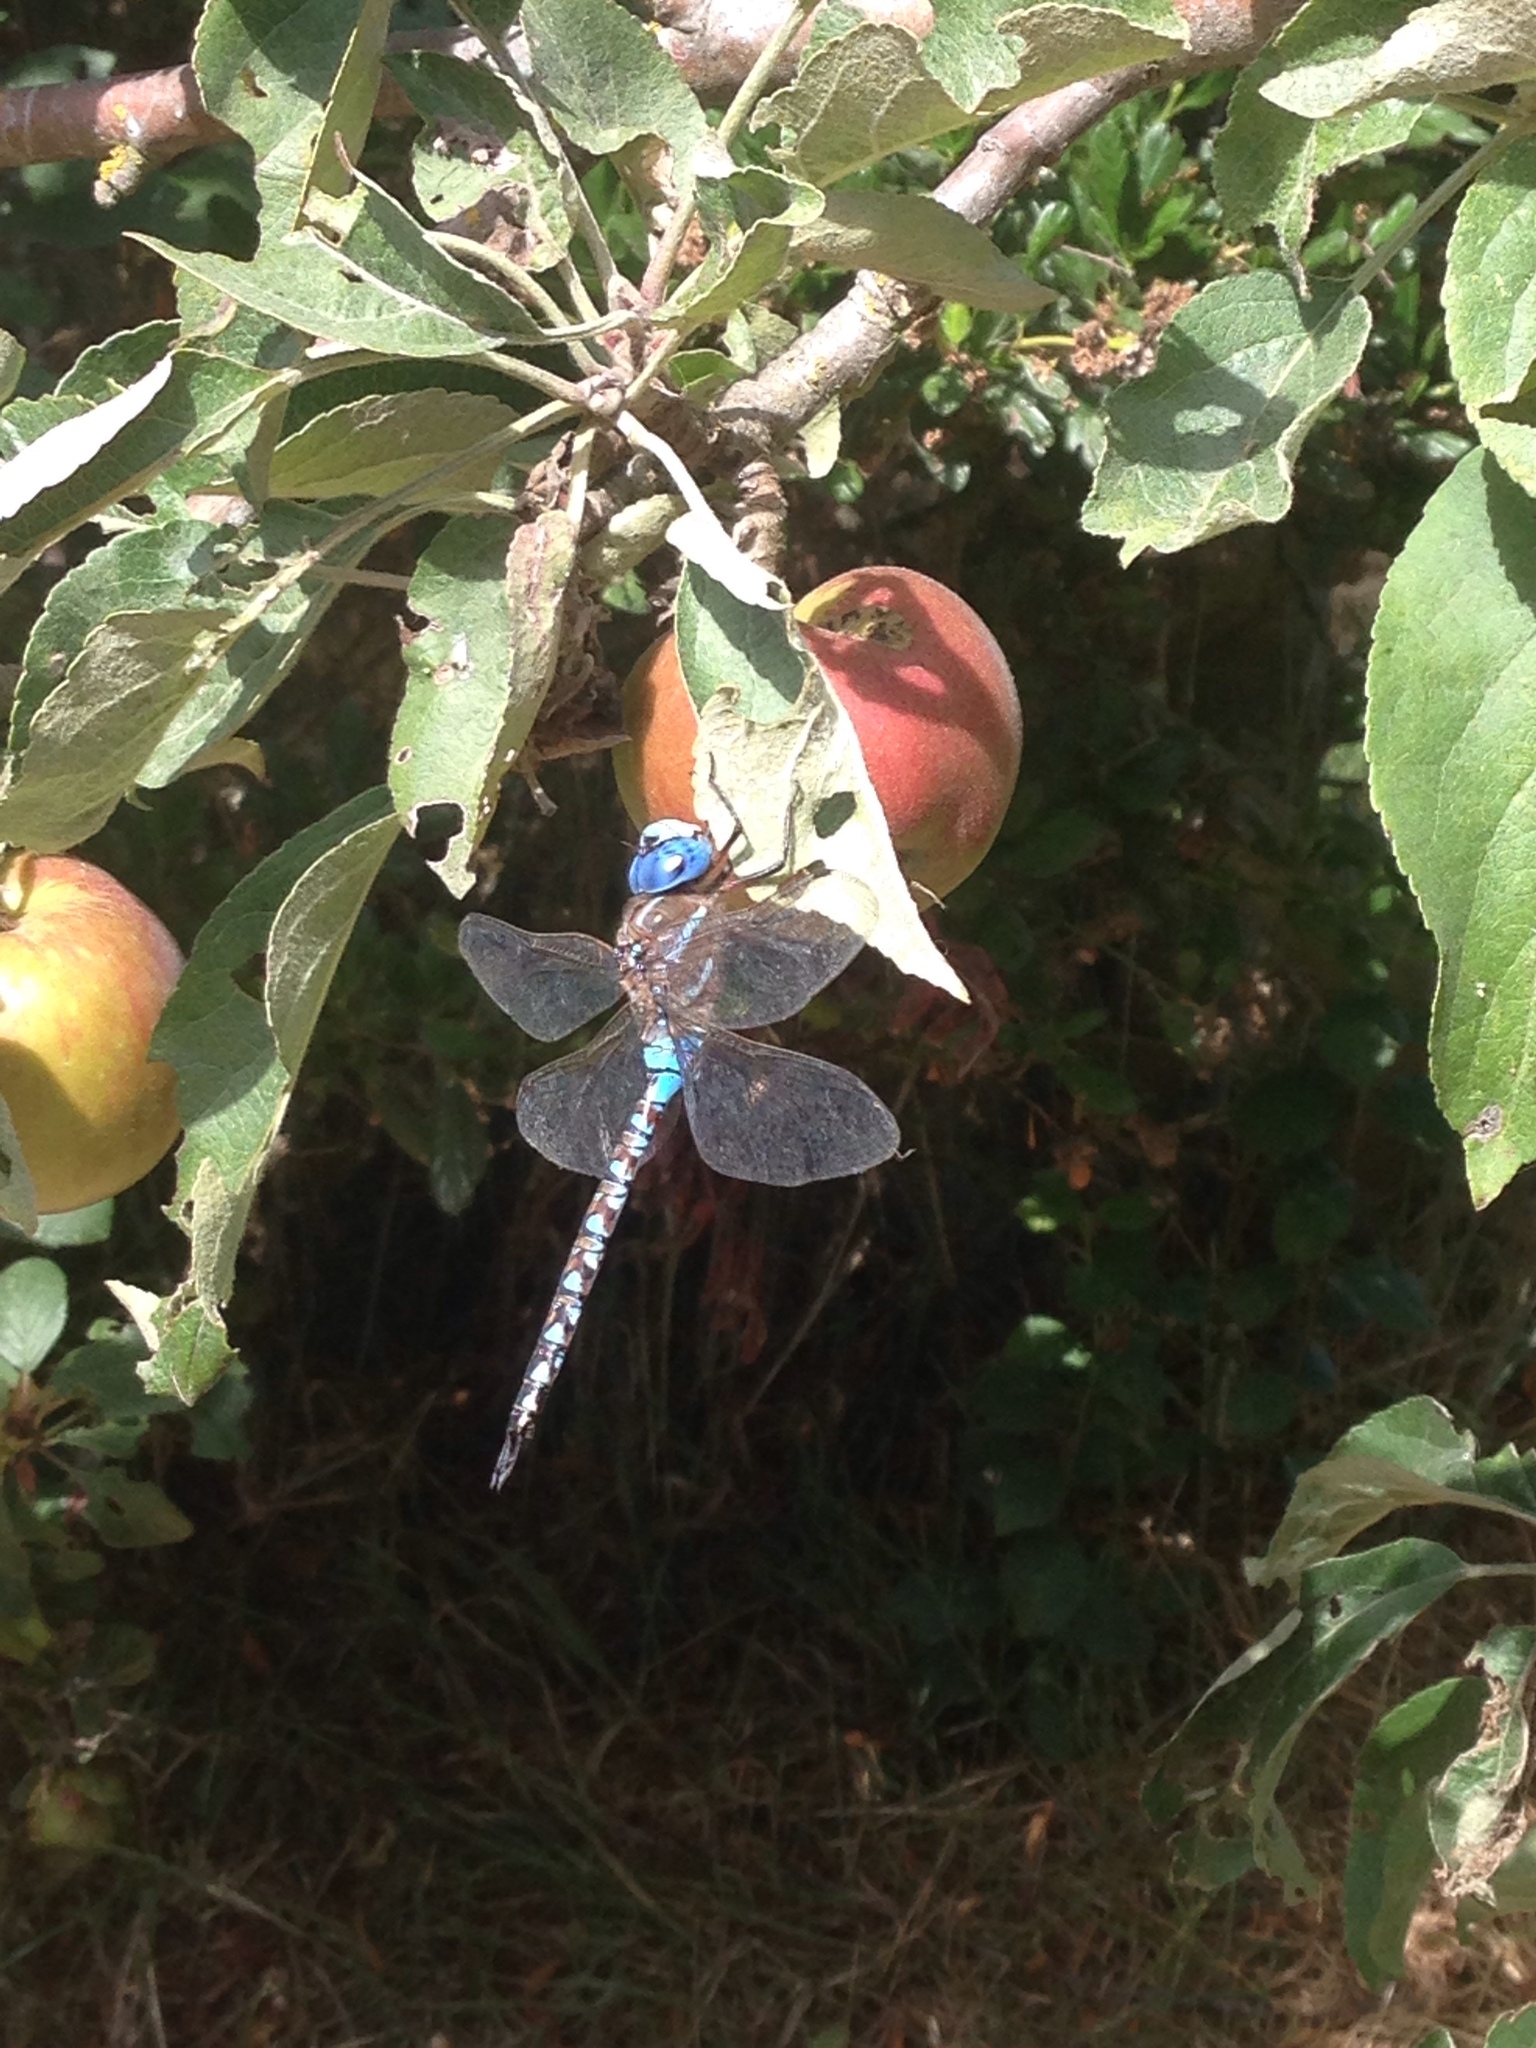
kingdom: Animalia
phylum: Arthropoda
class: Insecta
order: Odonata
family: Aeshnidae
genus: Rhionaeschna
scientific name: Rhionaeschna multicolor
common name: Blue-eyed darner
